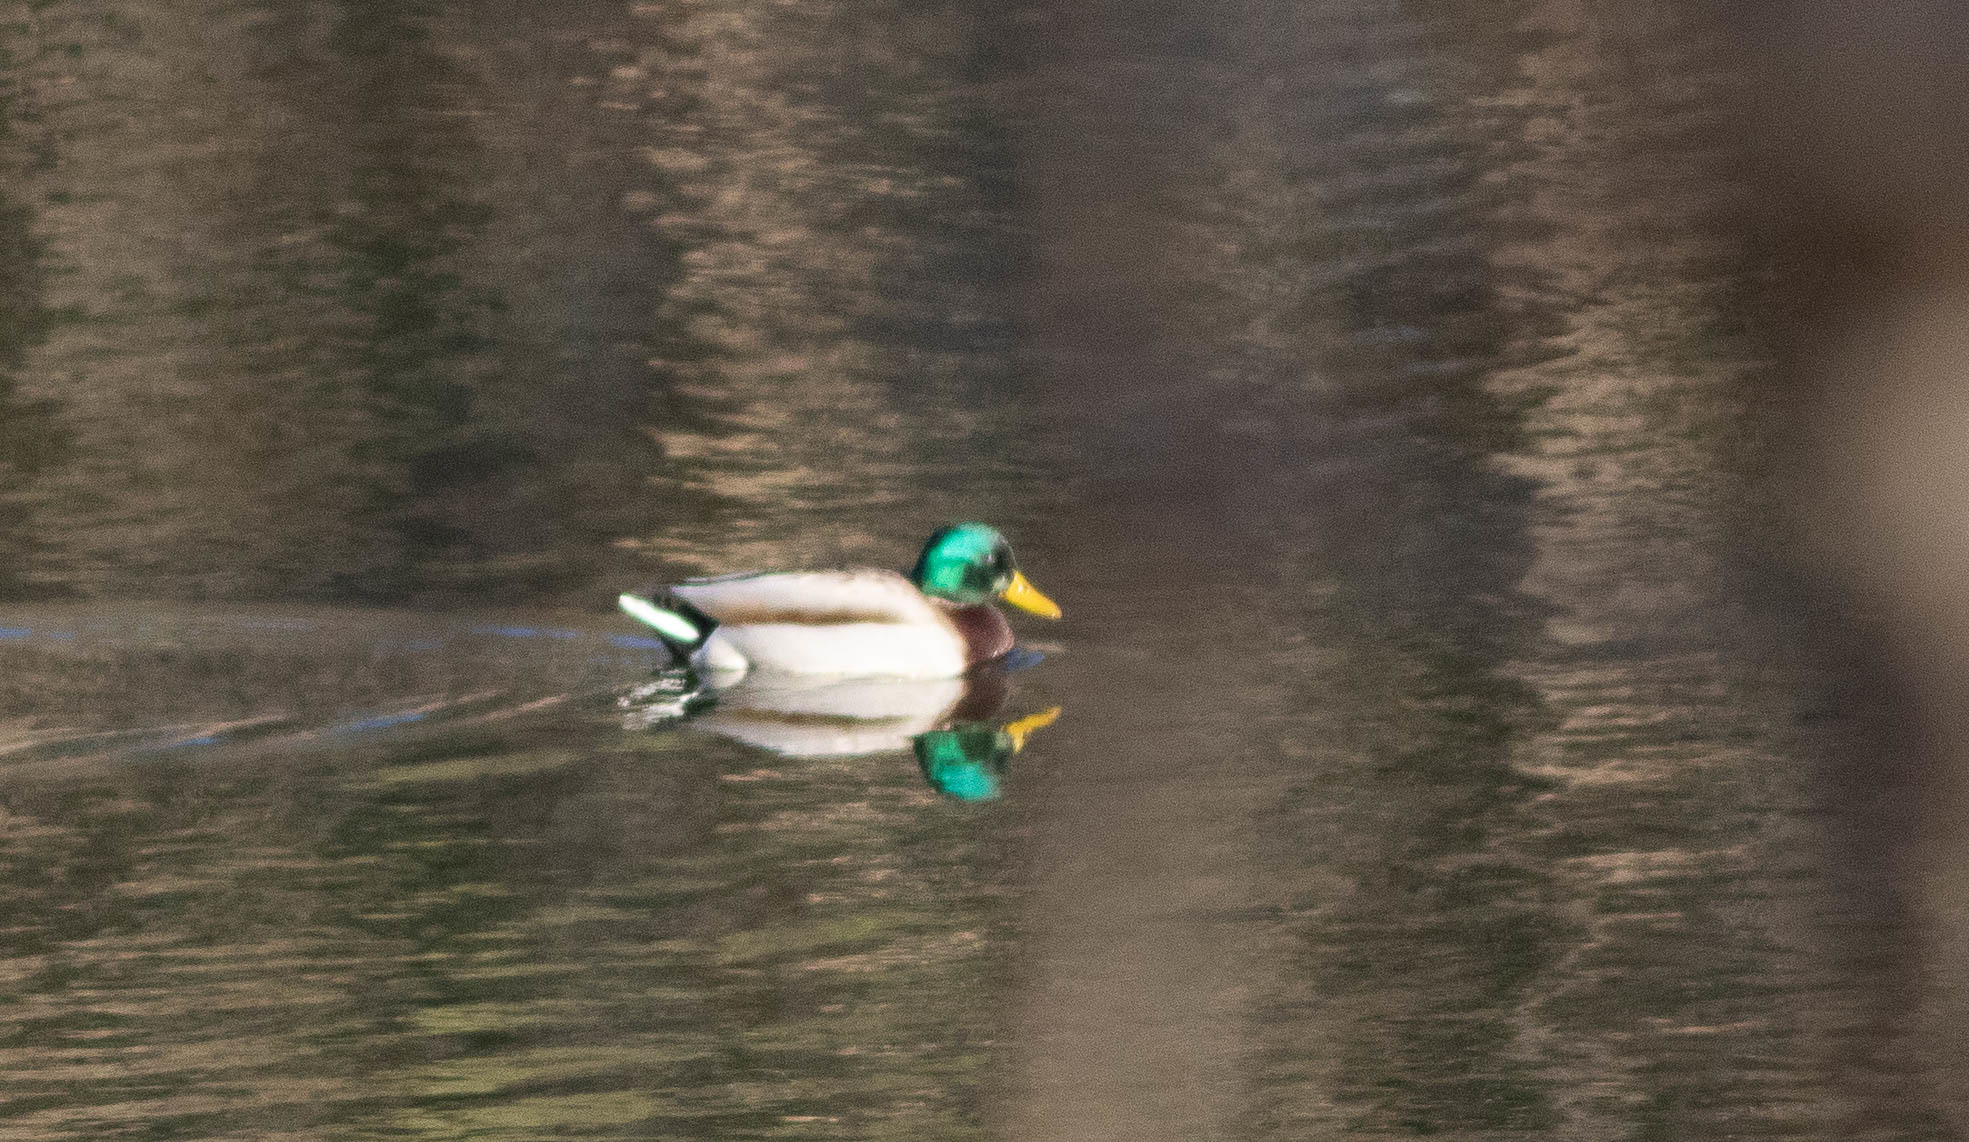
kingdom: Animalia
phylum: Chordata
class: Aves
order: Anseriformes
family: Anatidae
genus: Anas
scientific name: Anas platyrhynchos
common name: Mallard
